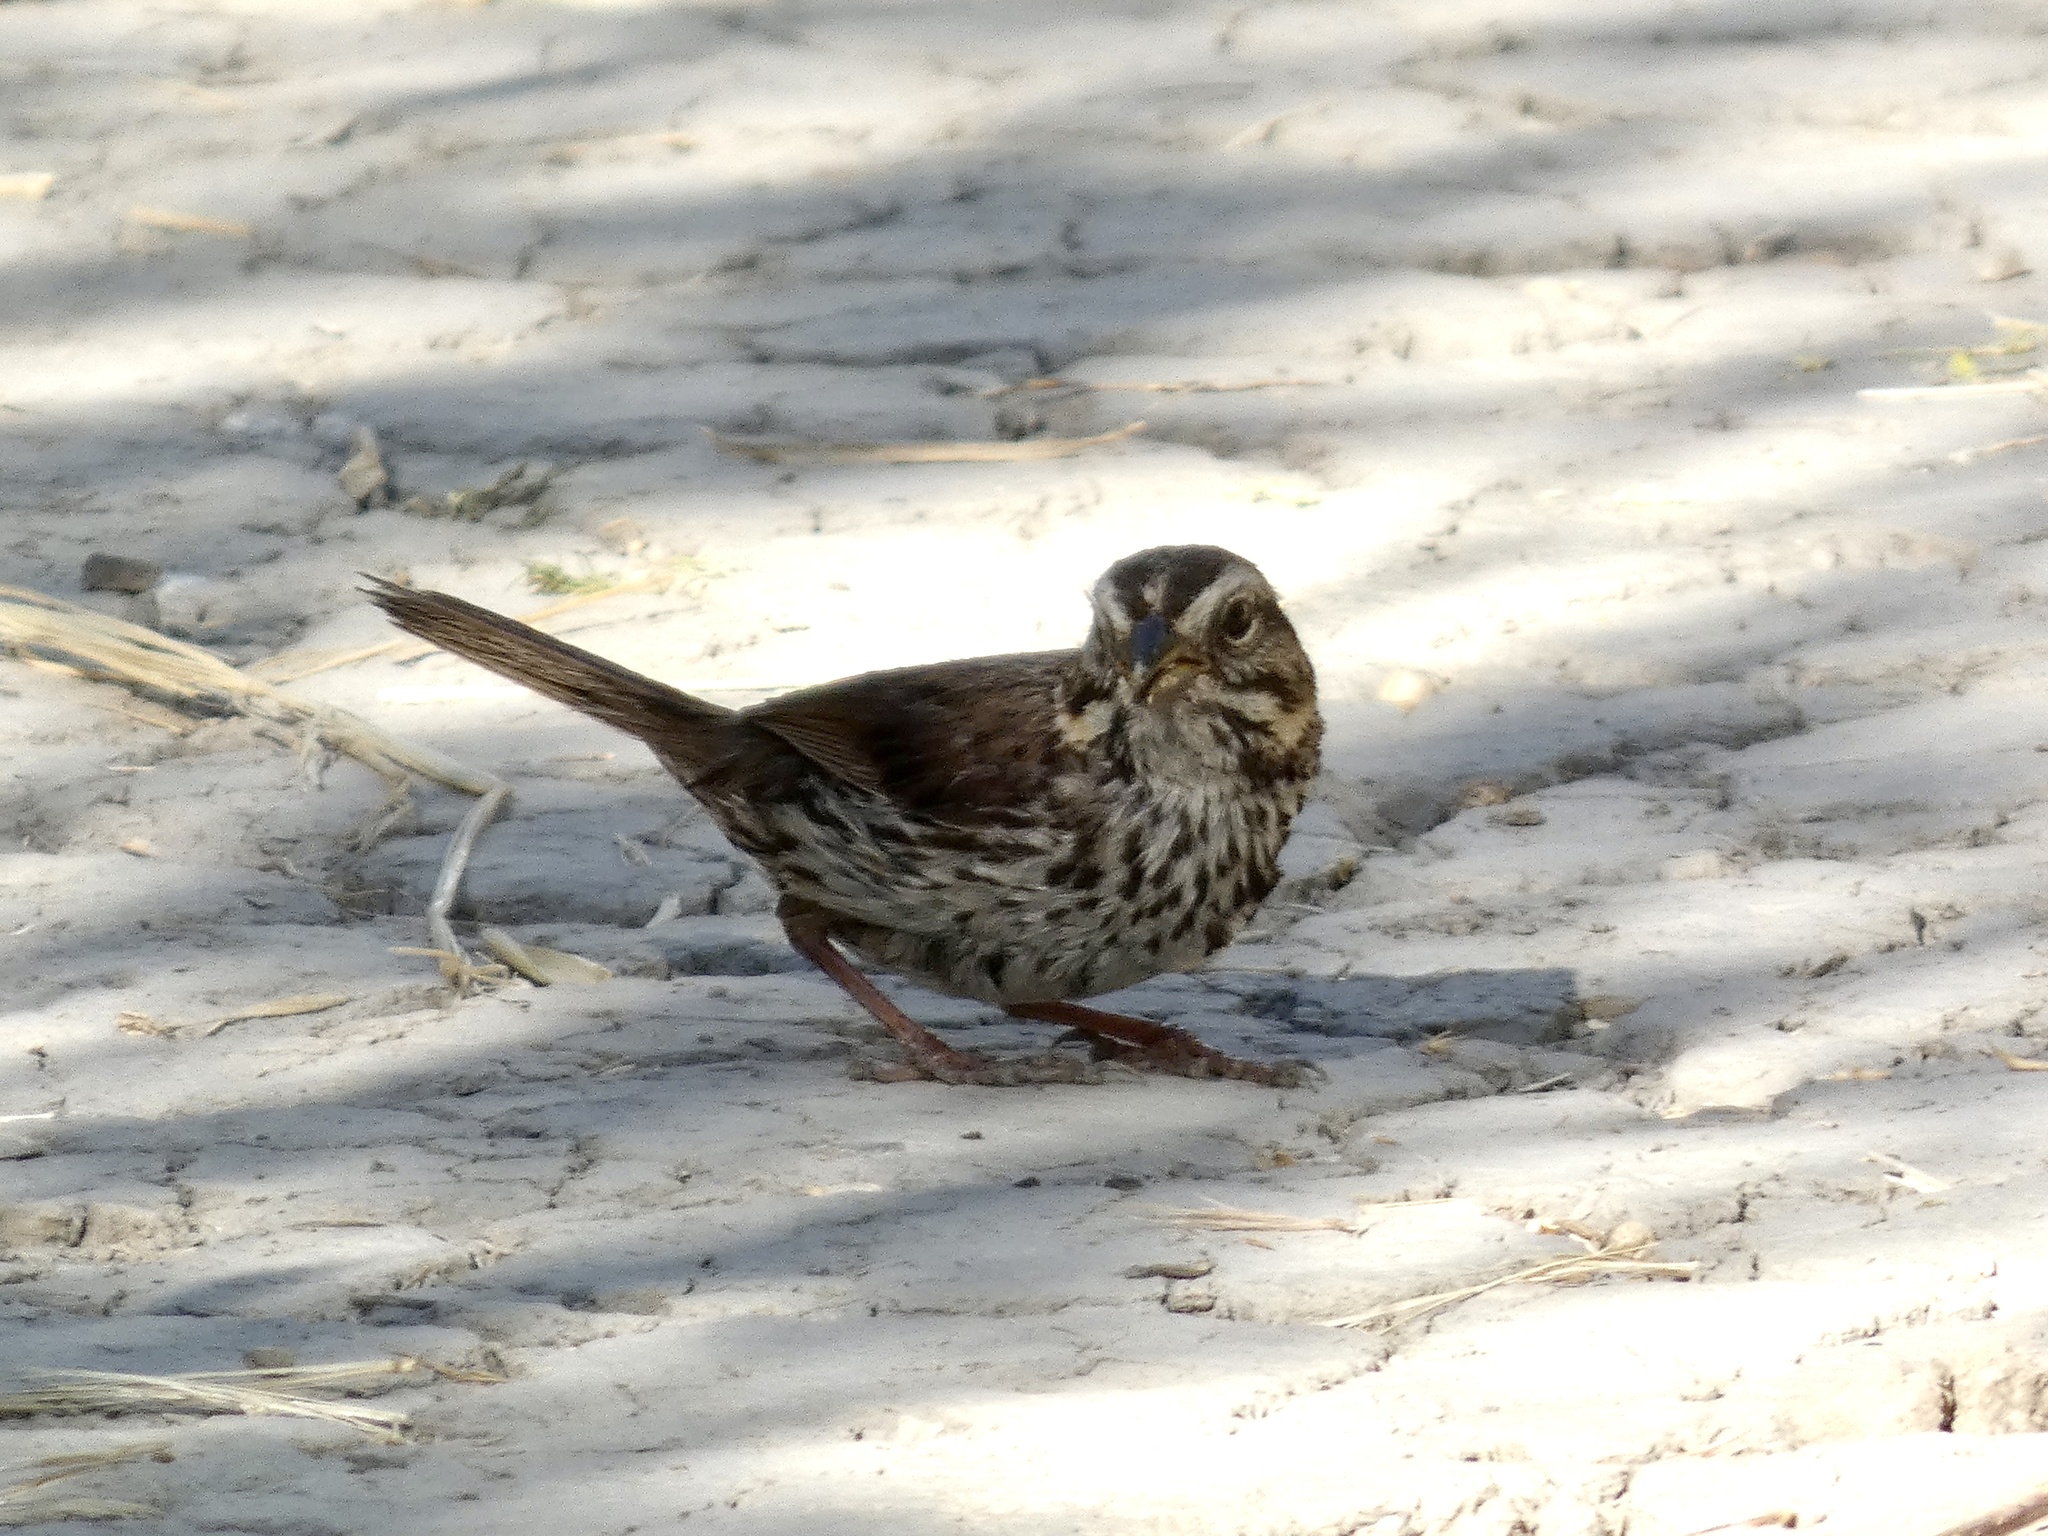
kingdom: Animalia
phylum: Chordata
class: Aves
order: Passeriformes
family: Passerellidae
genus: Melospiza
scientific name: Melospiza melodia
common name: Song sparrow
